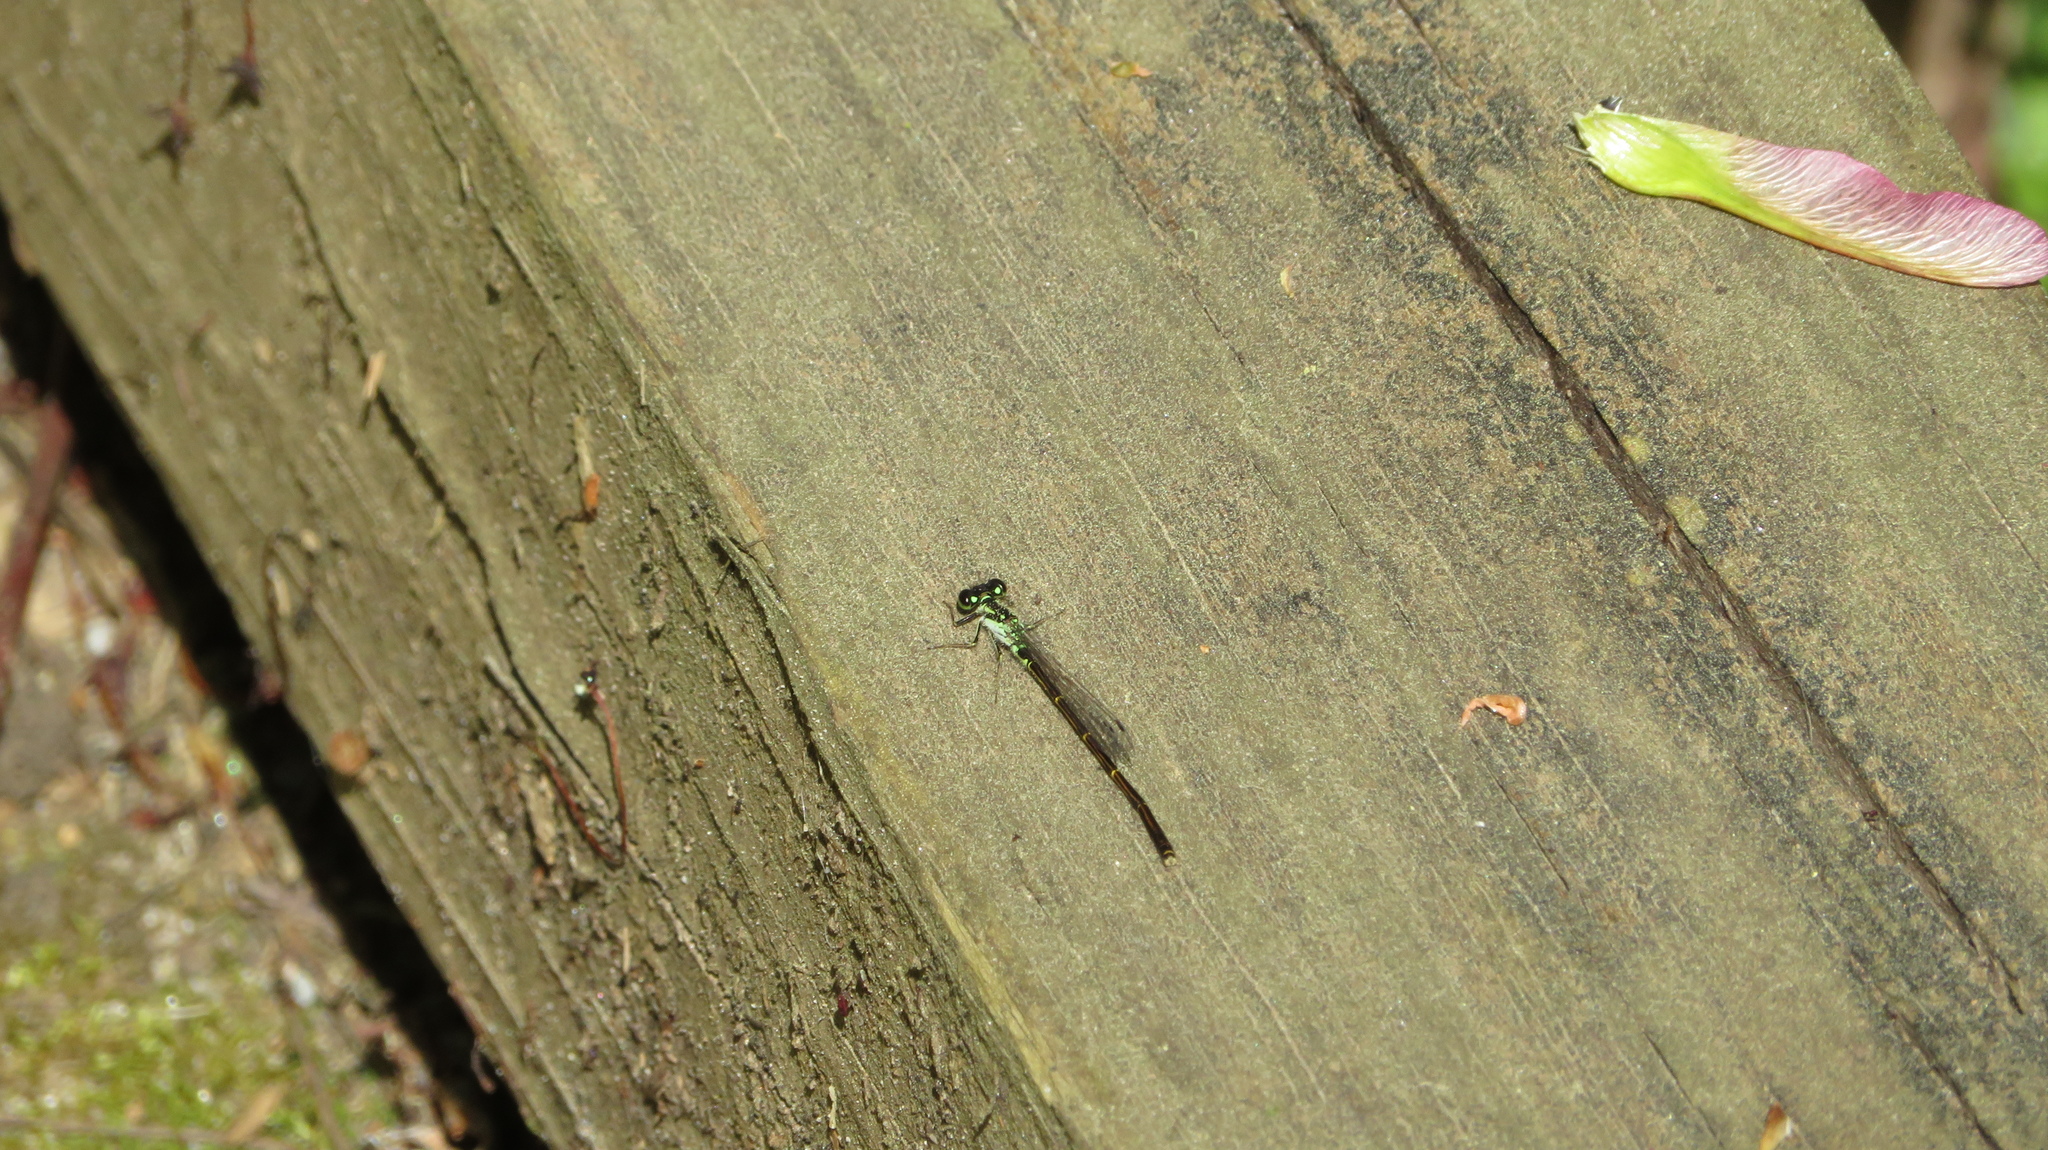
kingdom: Animalia
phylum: Arthropoda
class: Insecta
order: Odonata
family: Coenagrionidae
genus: Ischnura
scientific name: Ischnura posita
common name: Fragile forktail
